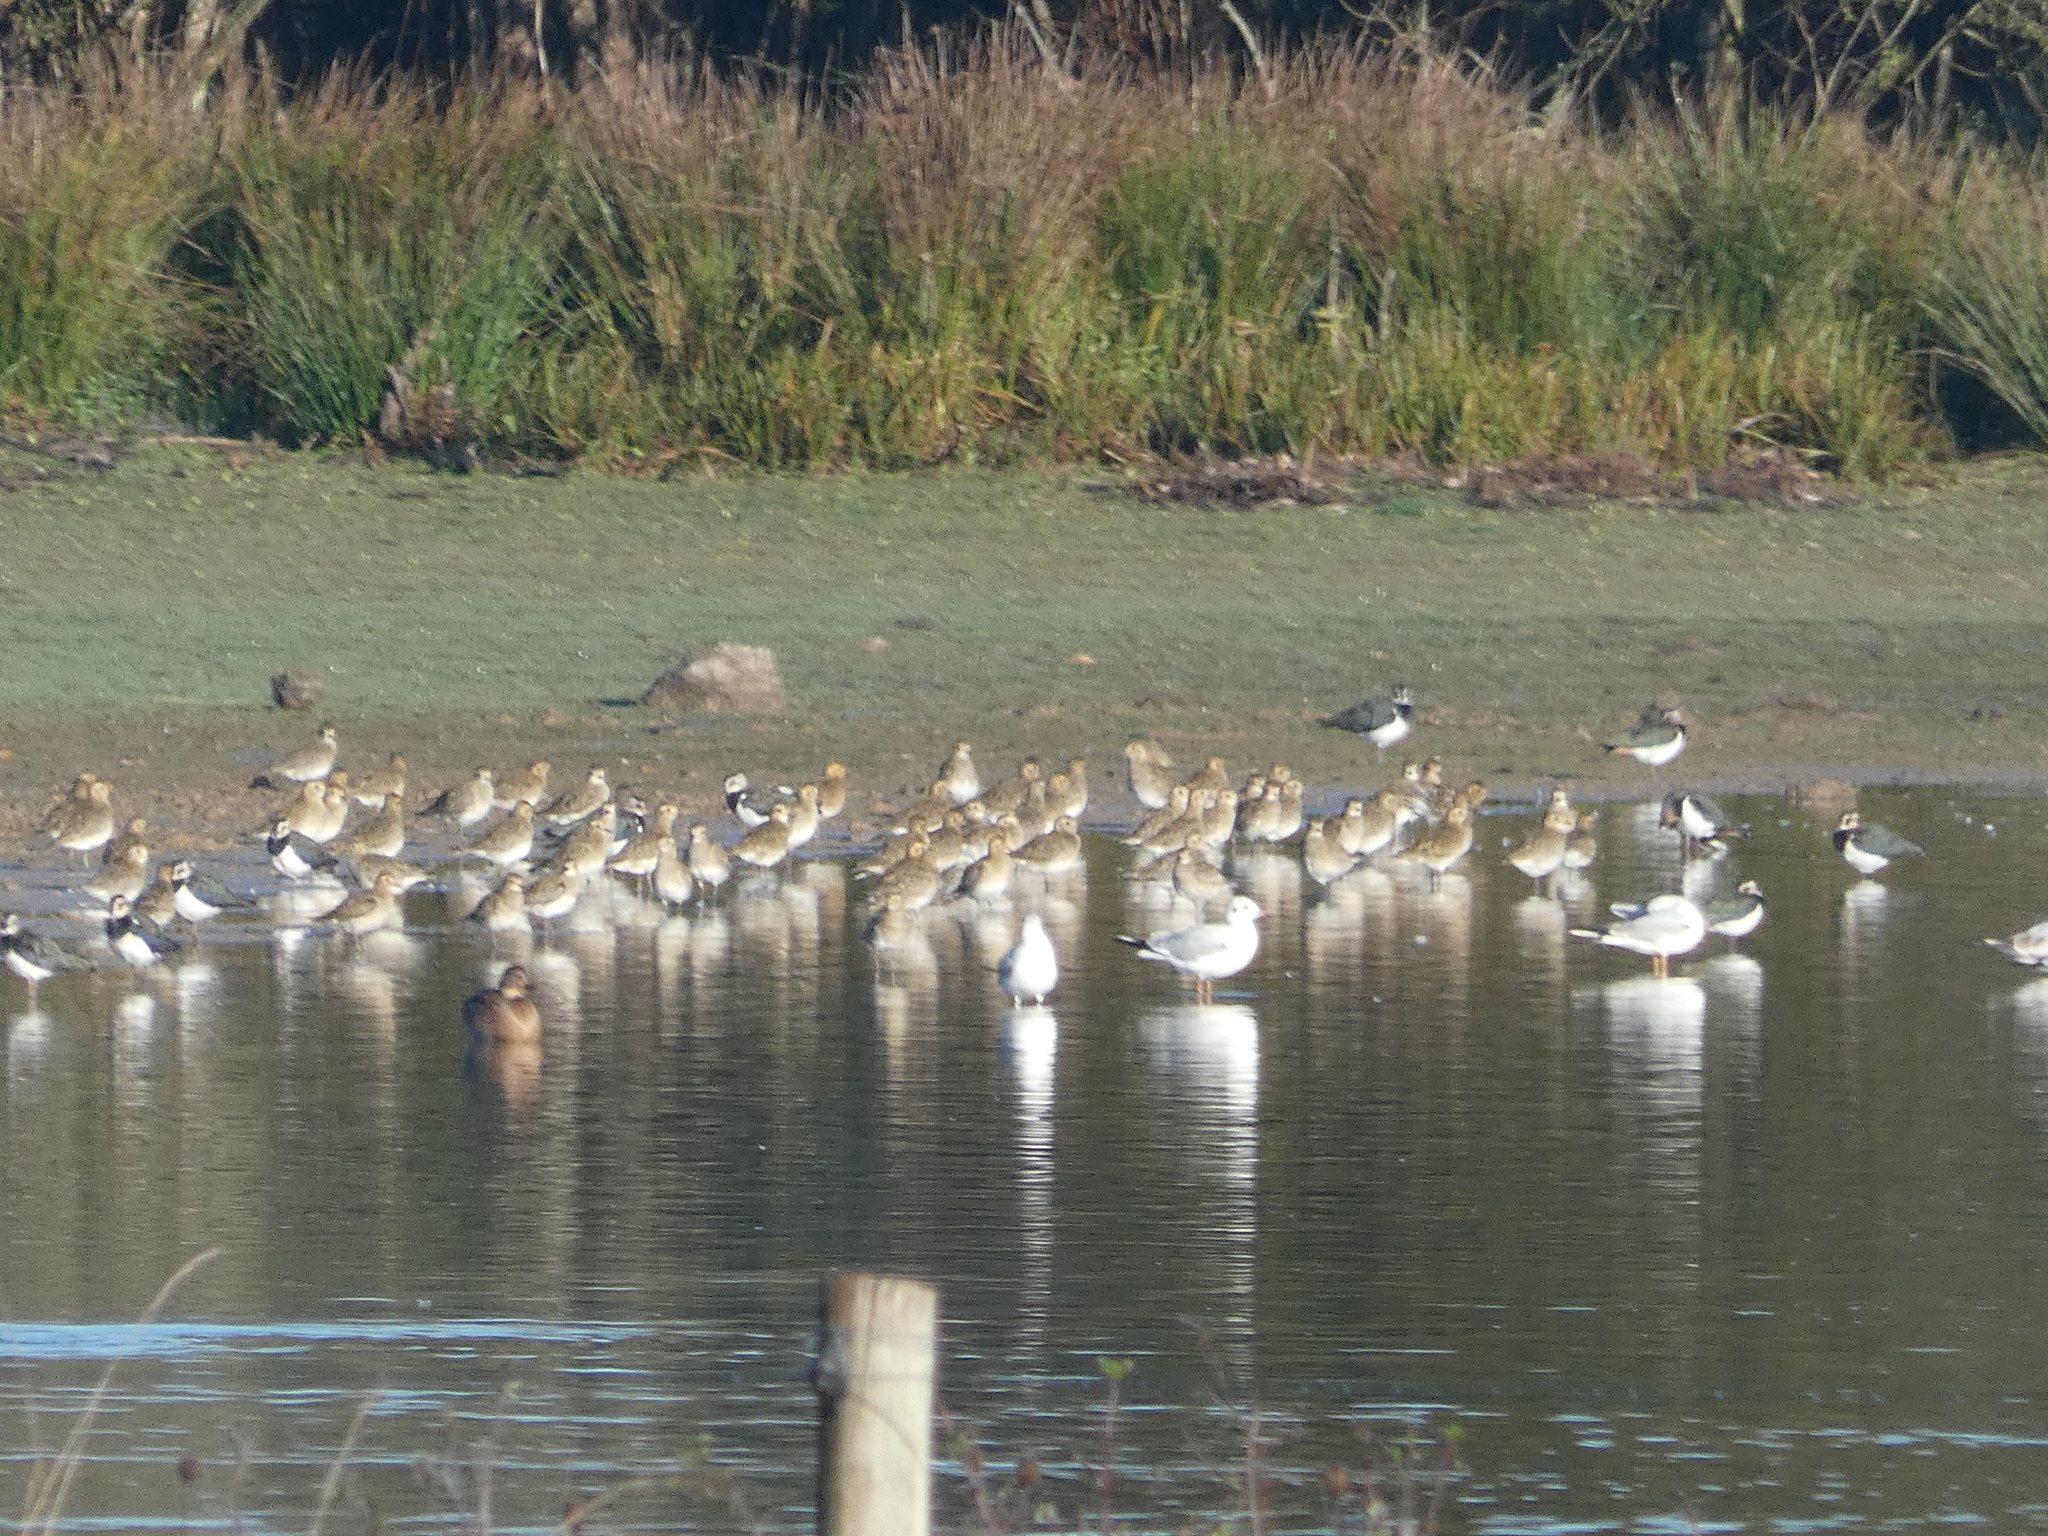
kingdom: Animalia
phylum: Chordata
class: Aves
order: Charadriiformes
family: Laridae
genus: Chroicocephalus
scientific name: Chroicocephalus ridibundus
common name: Black-headed gull
